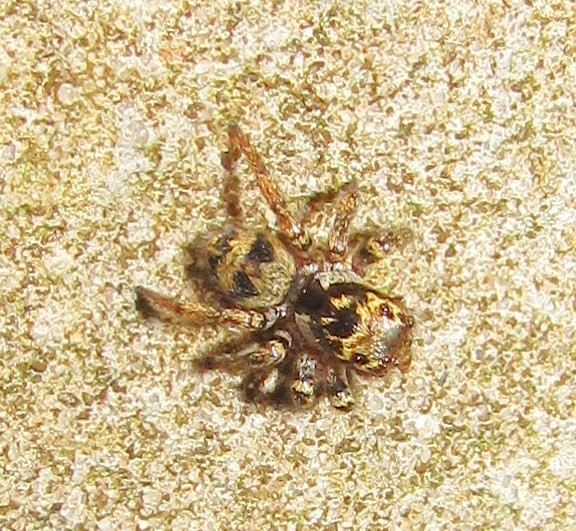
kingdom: Animalia
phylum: Arthropoda
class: Arachnida
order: Araneae
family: Salticidae
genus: Corythalia
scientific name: Corythalia conferta
